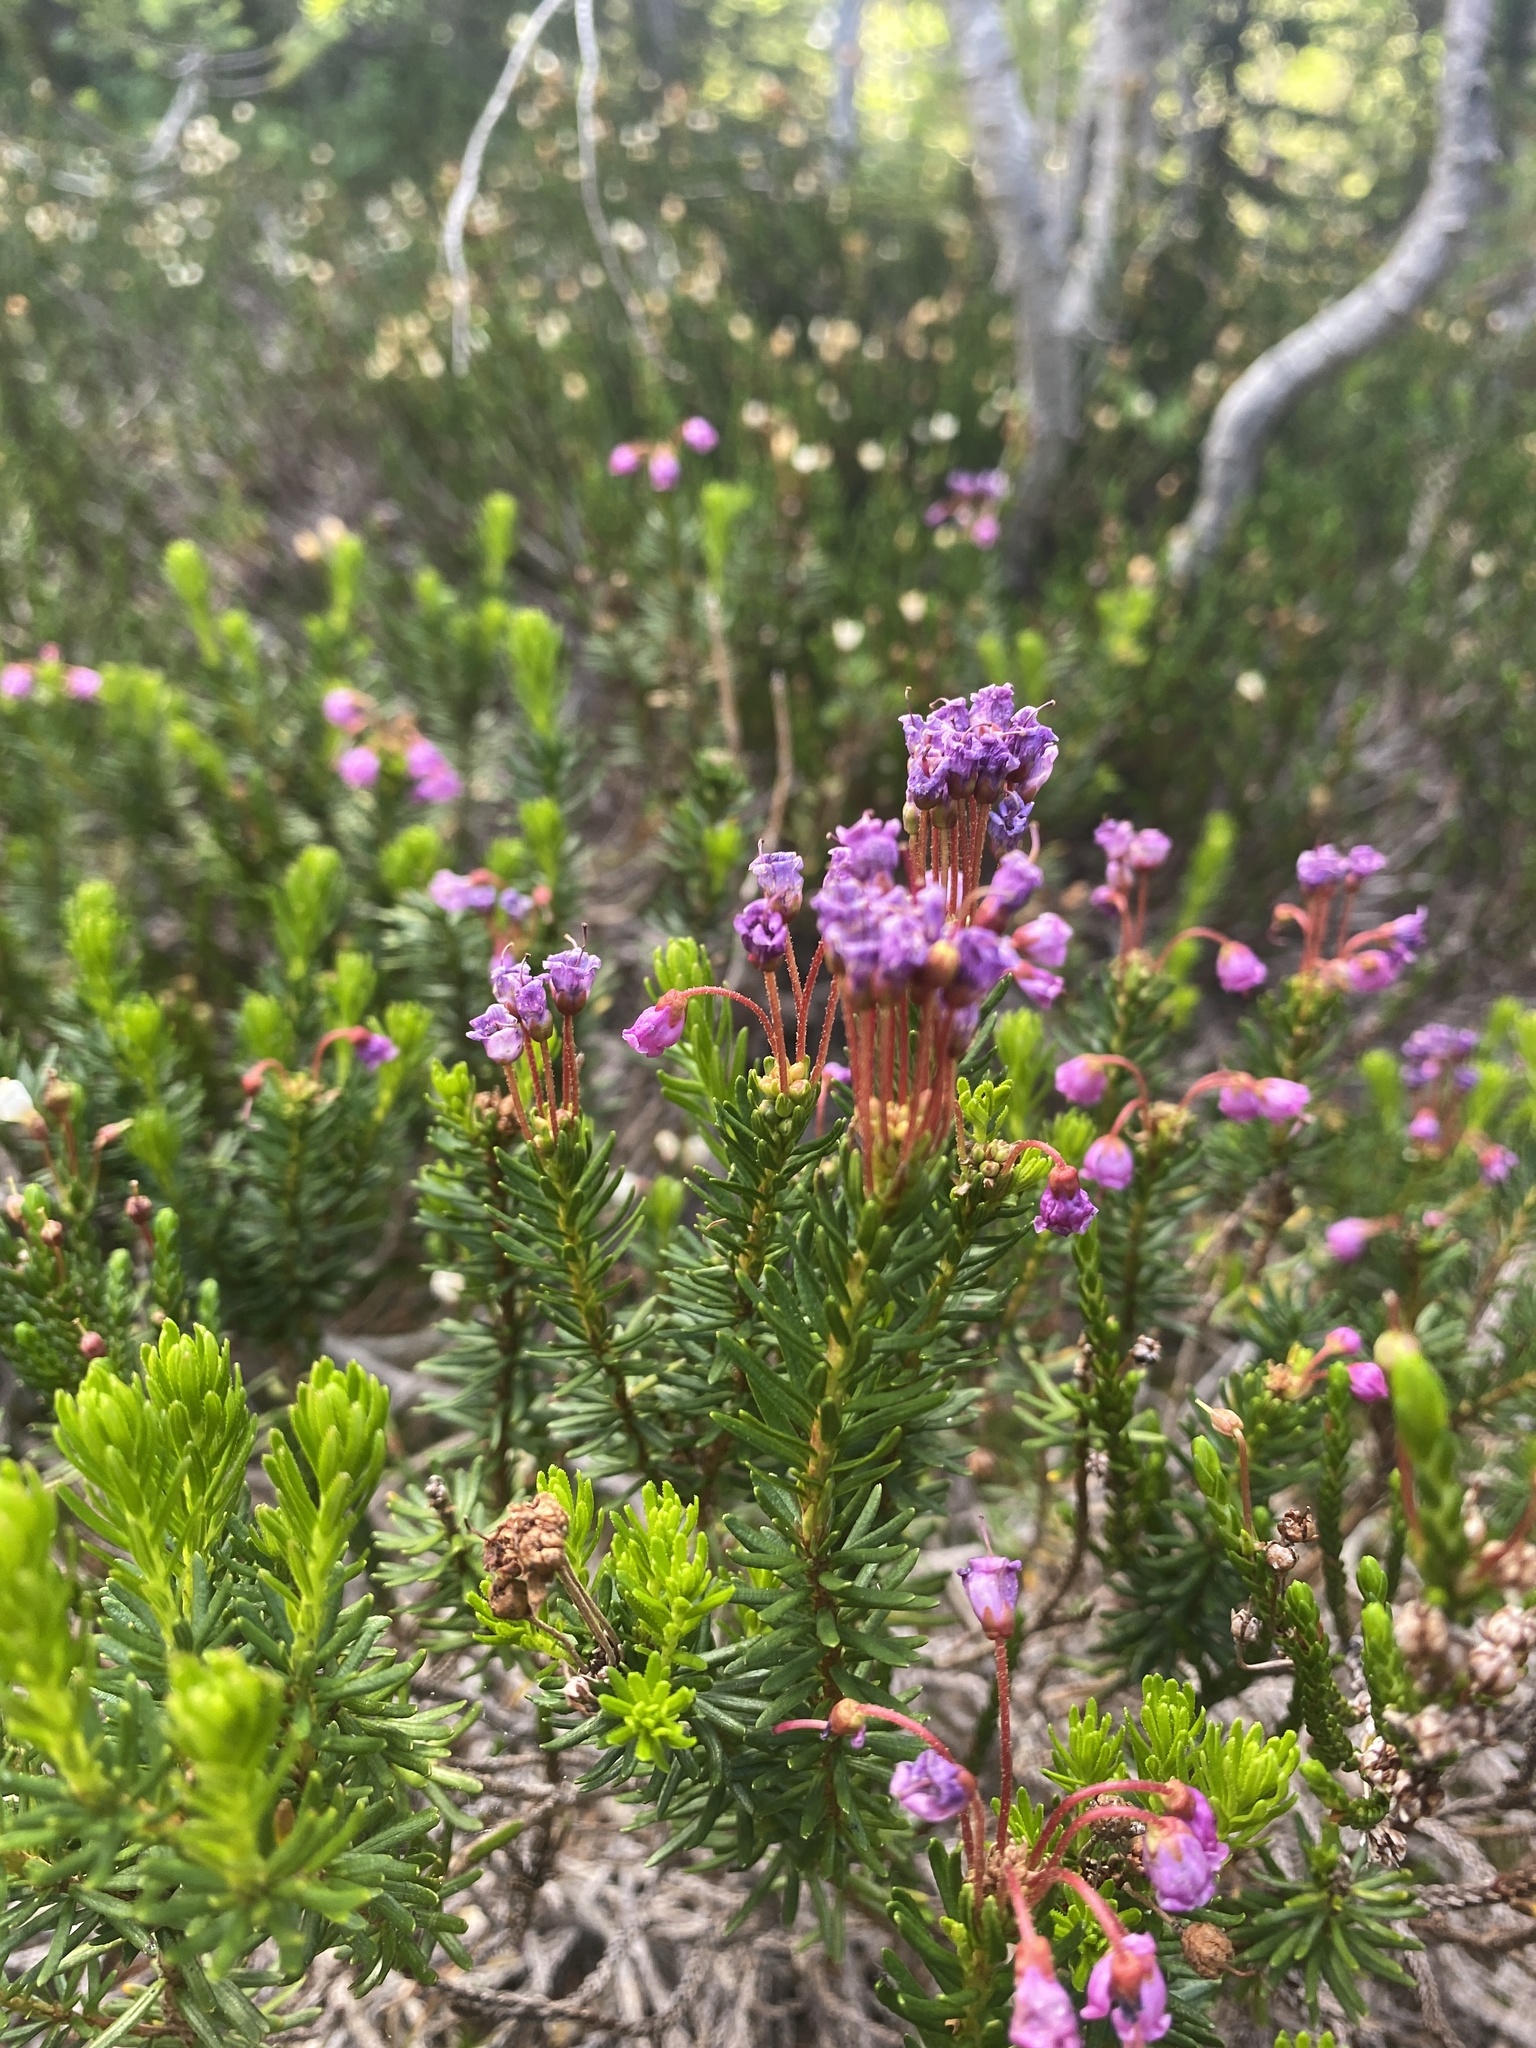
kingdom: Plantae
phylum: Tracheophyta
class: Magnoliopsida
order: Ericales
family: Ericaceae
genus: Phyllodoce
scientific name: Phyllodoce empetriformis
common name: Pink mountain heather
